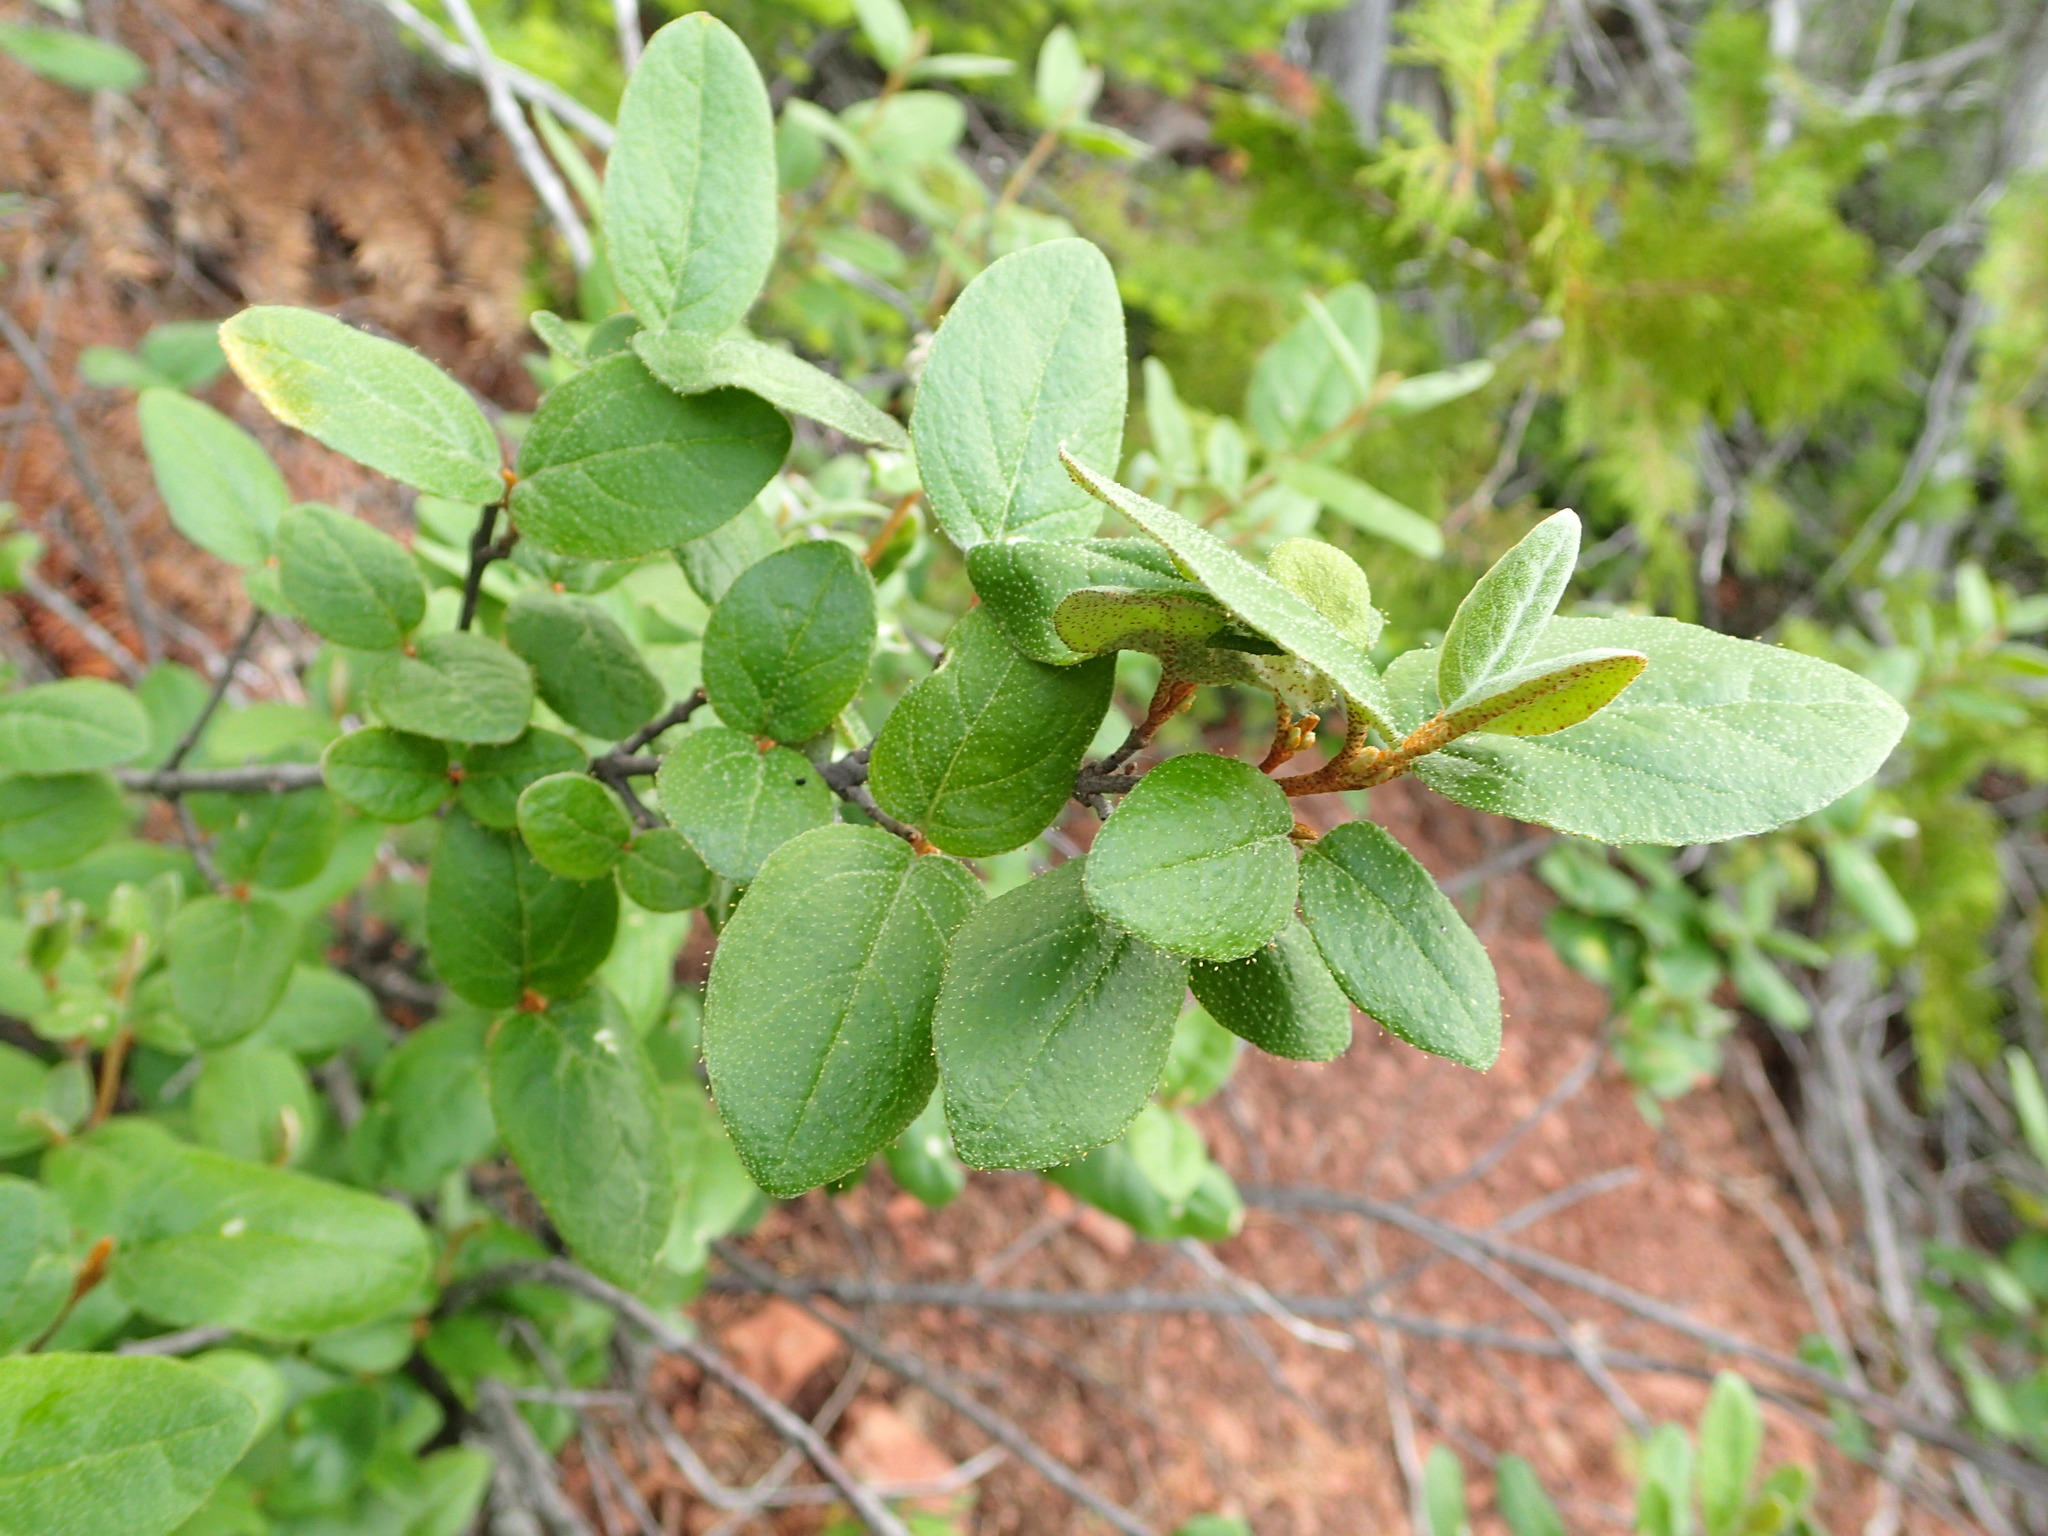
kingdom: Plantae
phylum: Tracheophyta
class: Magnoliopsida
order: Rosales
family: Elaeagnaceae
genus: Shepherdia
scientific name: Shepherdia canadensis
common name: Soapberry
